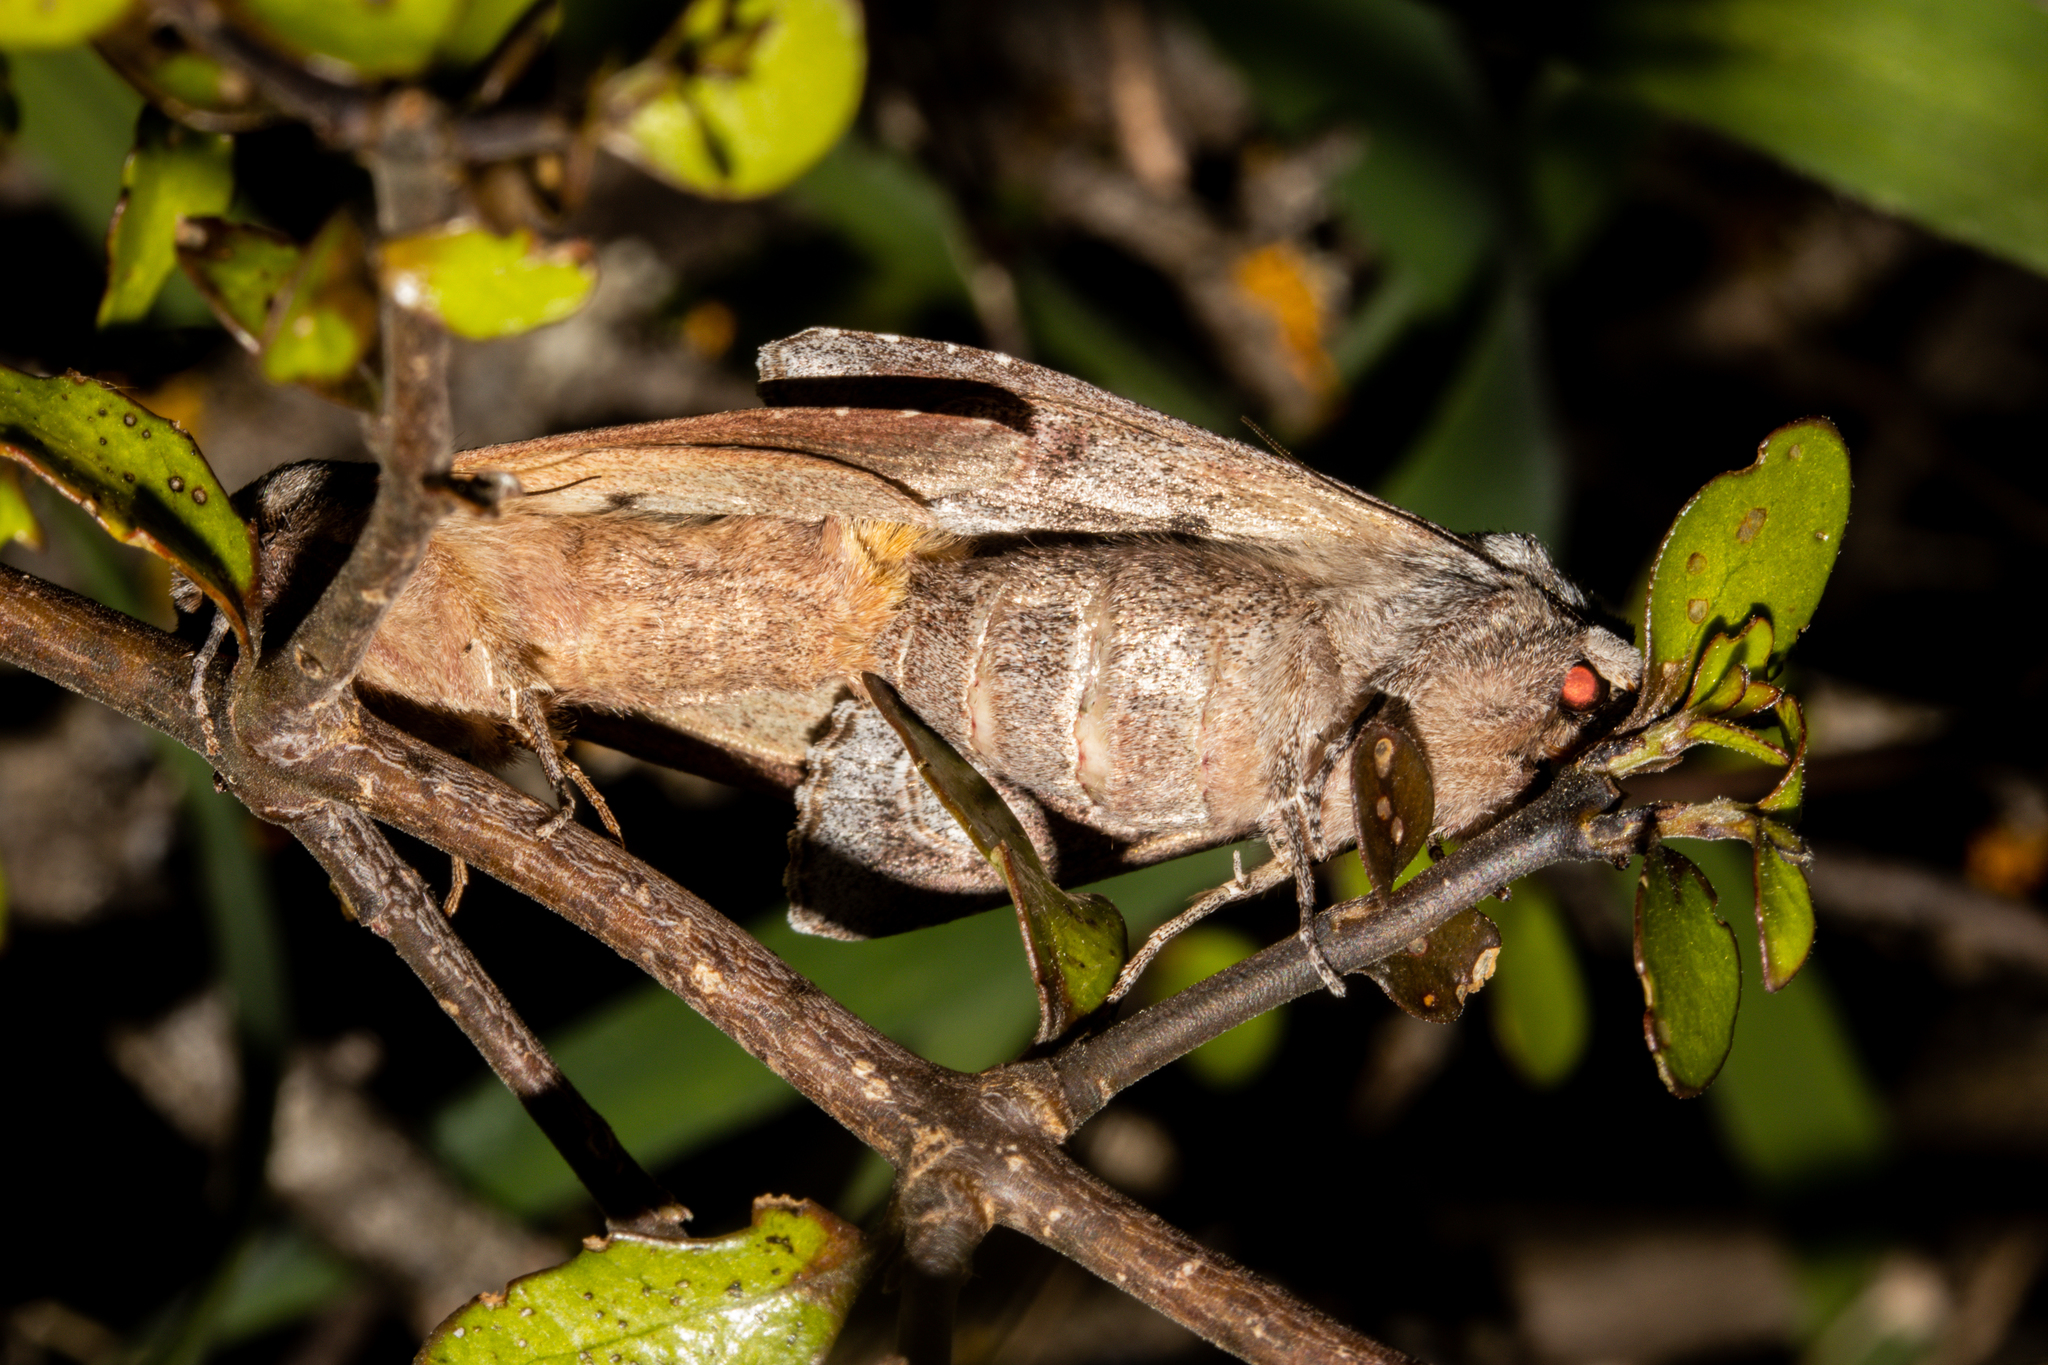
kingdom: Animalia
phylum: Arthropoda
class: Insecta
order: Lepidoptera
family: Noctuidae
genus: Ichneutica
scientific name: Ichneutica
